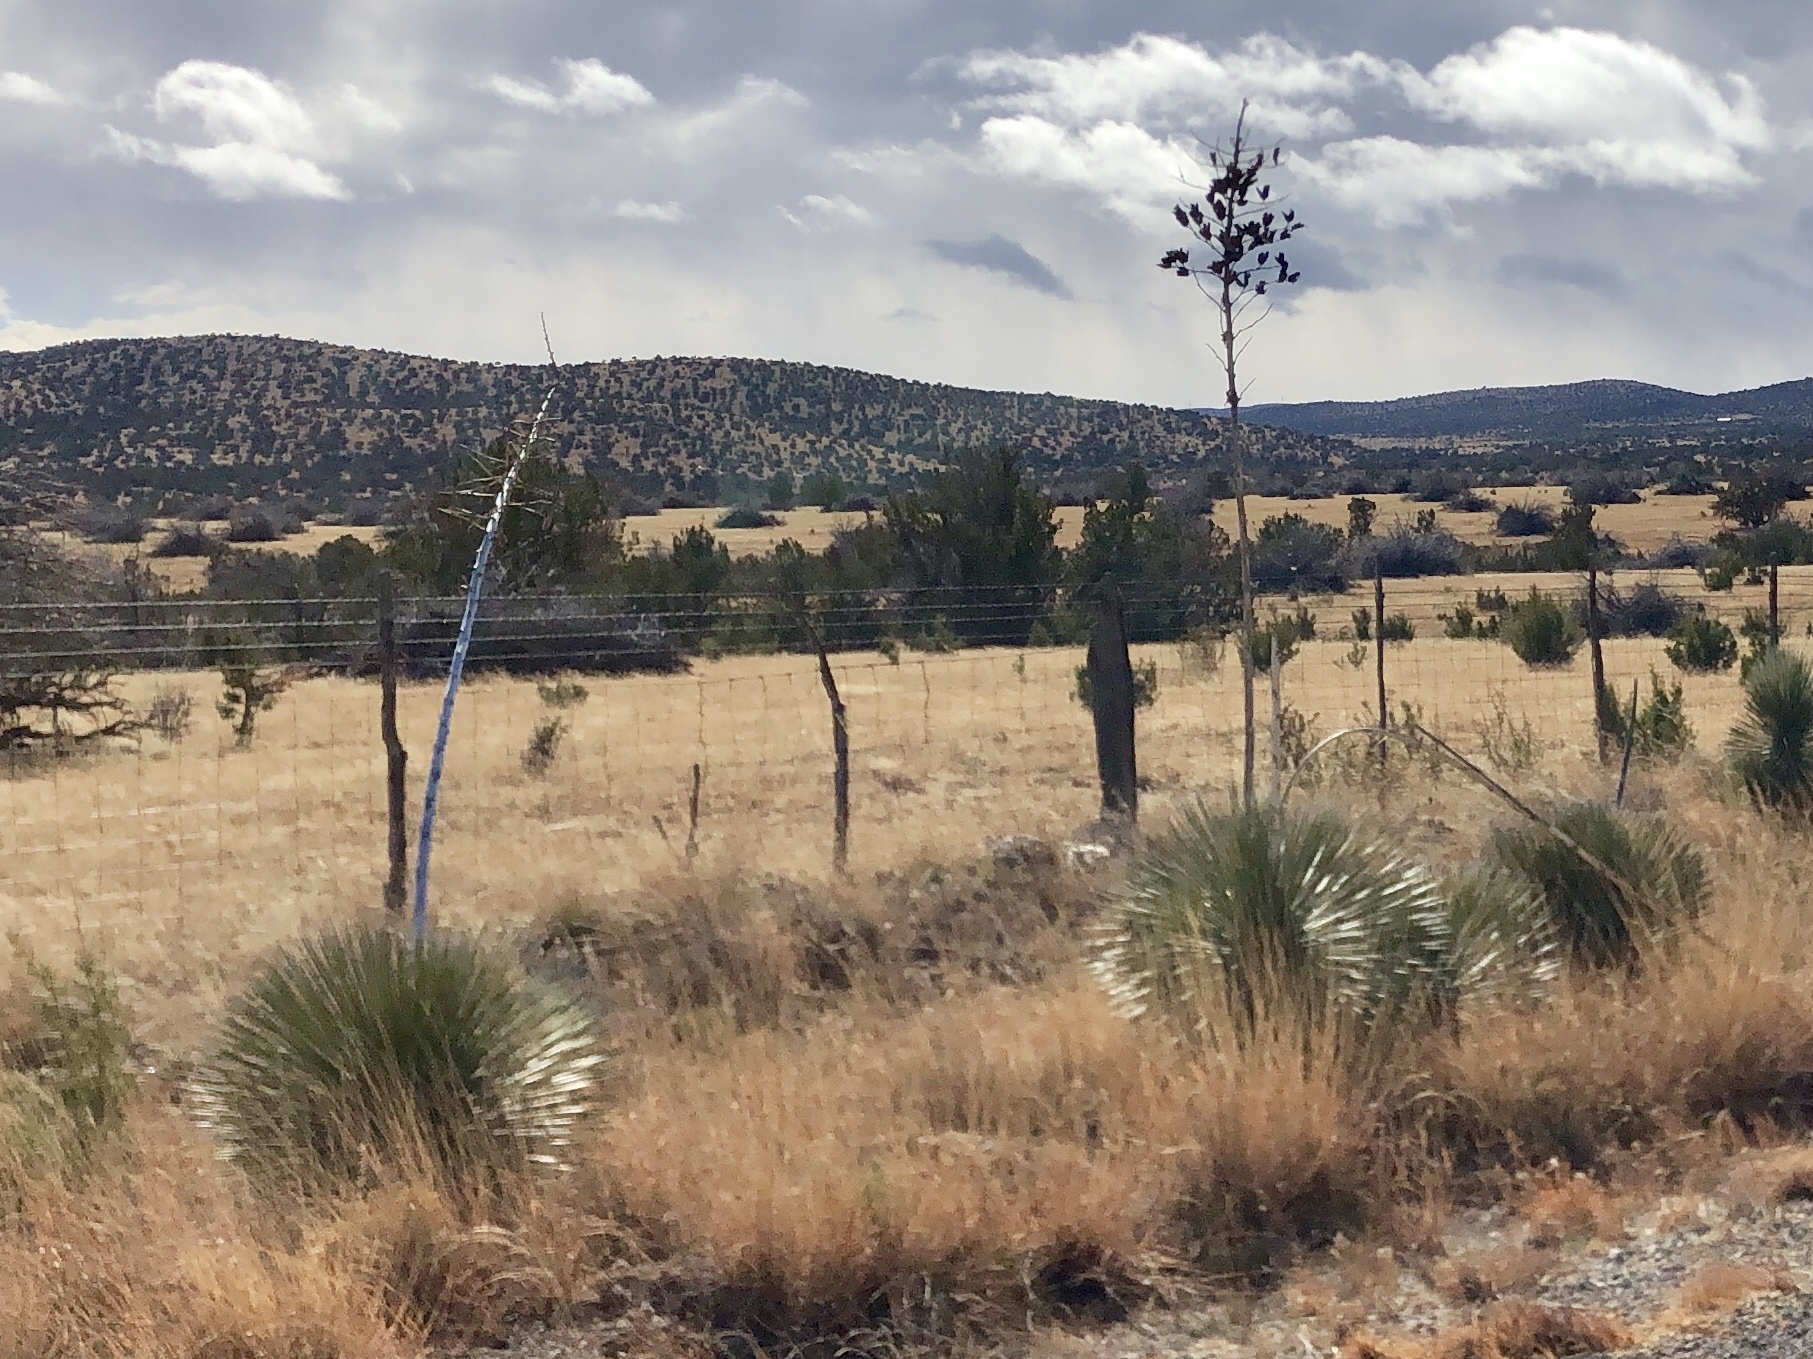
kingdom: Plantae
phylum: Tracheophyta
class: Liliopsida
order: Asparagales
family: Asparagaceae
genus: Yucca
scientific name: Yucca elata
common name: Palmella
